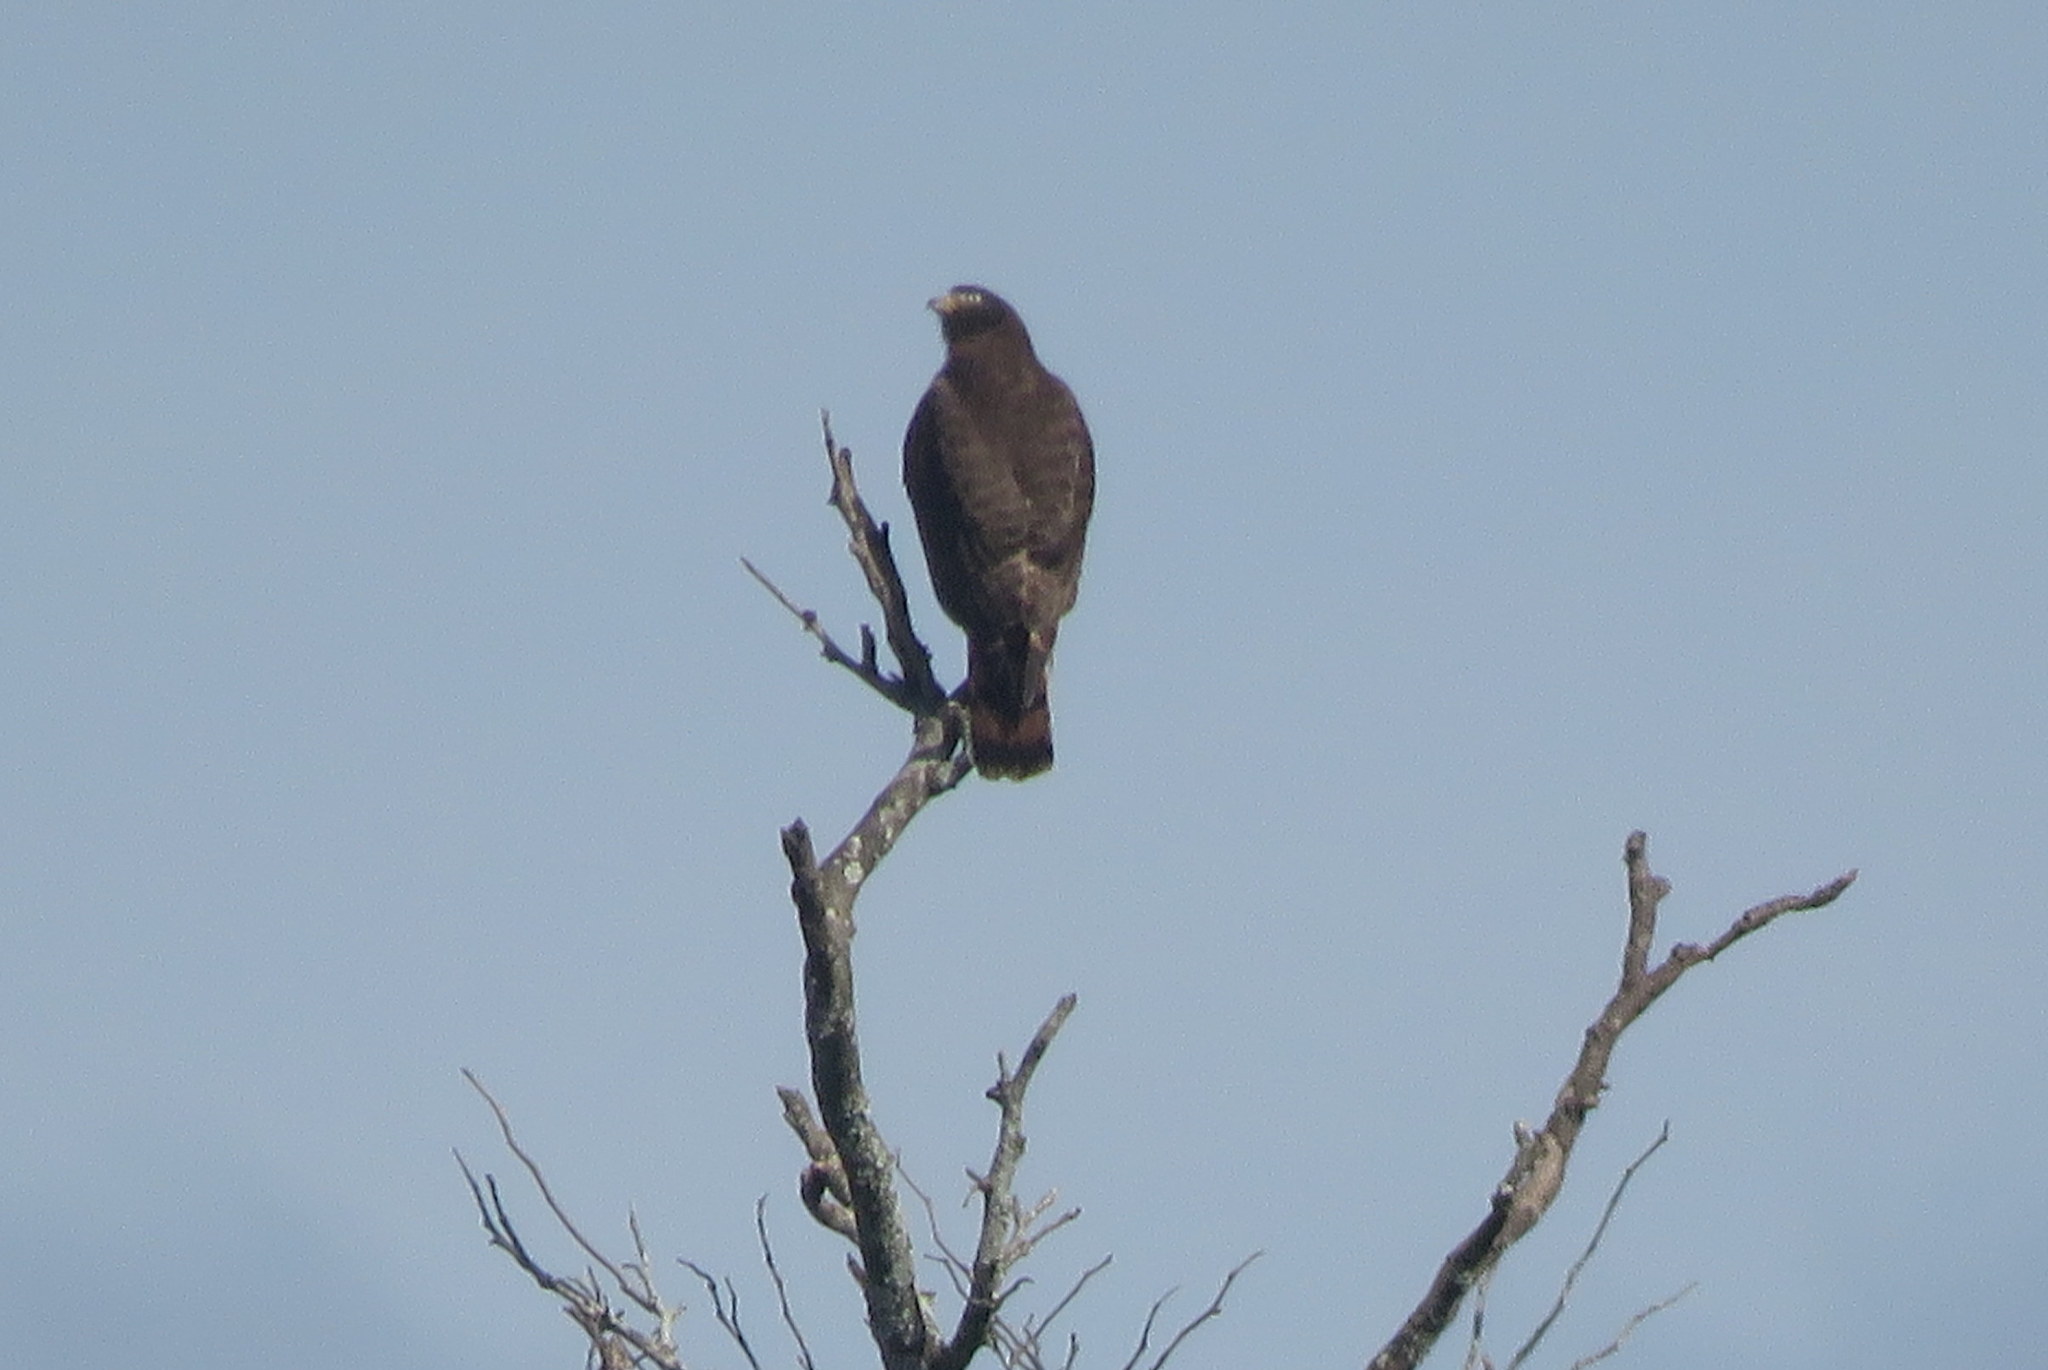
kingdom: Animalia
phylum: Chordata
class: Aves
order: Accipitriformes
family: Accipitridae
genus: Rupornis
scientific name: Rupornis magnirostris
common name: Roadside hawk
